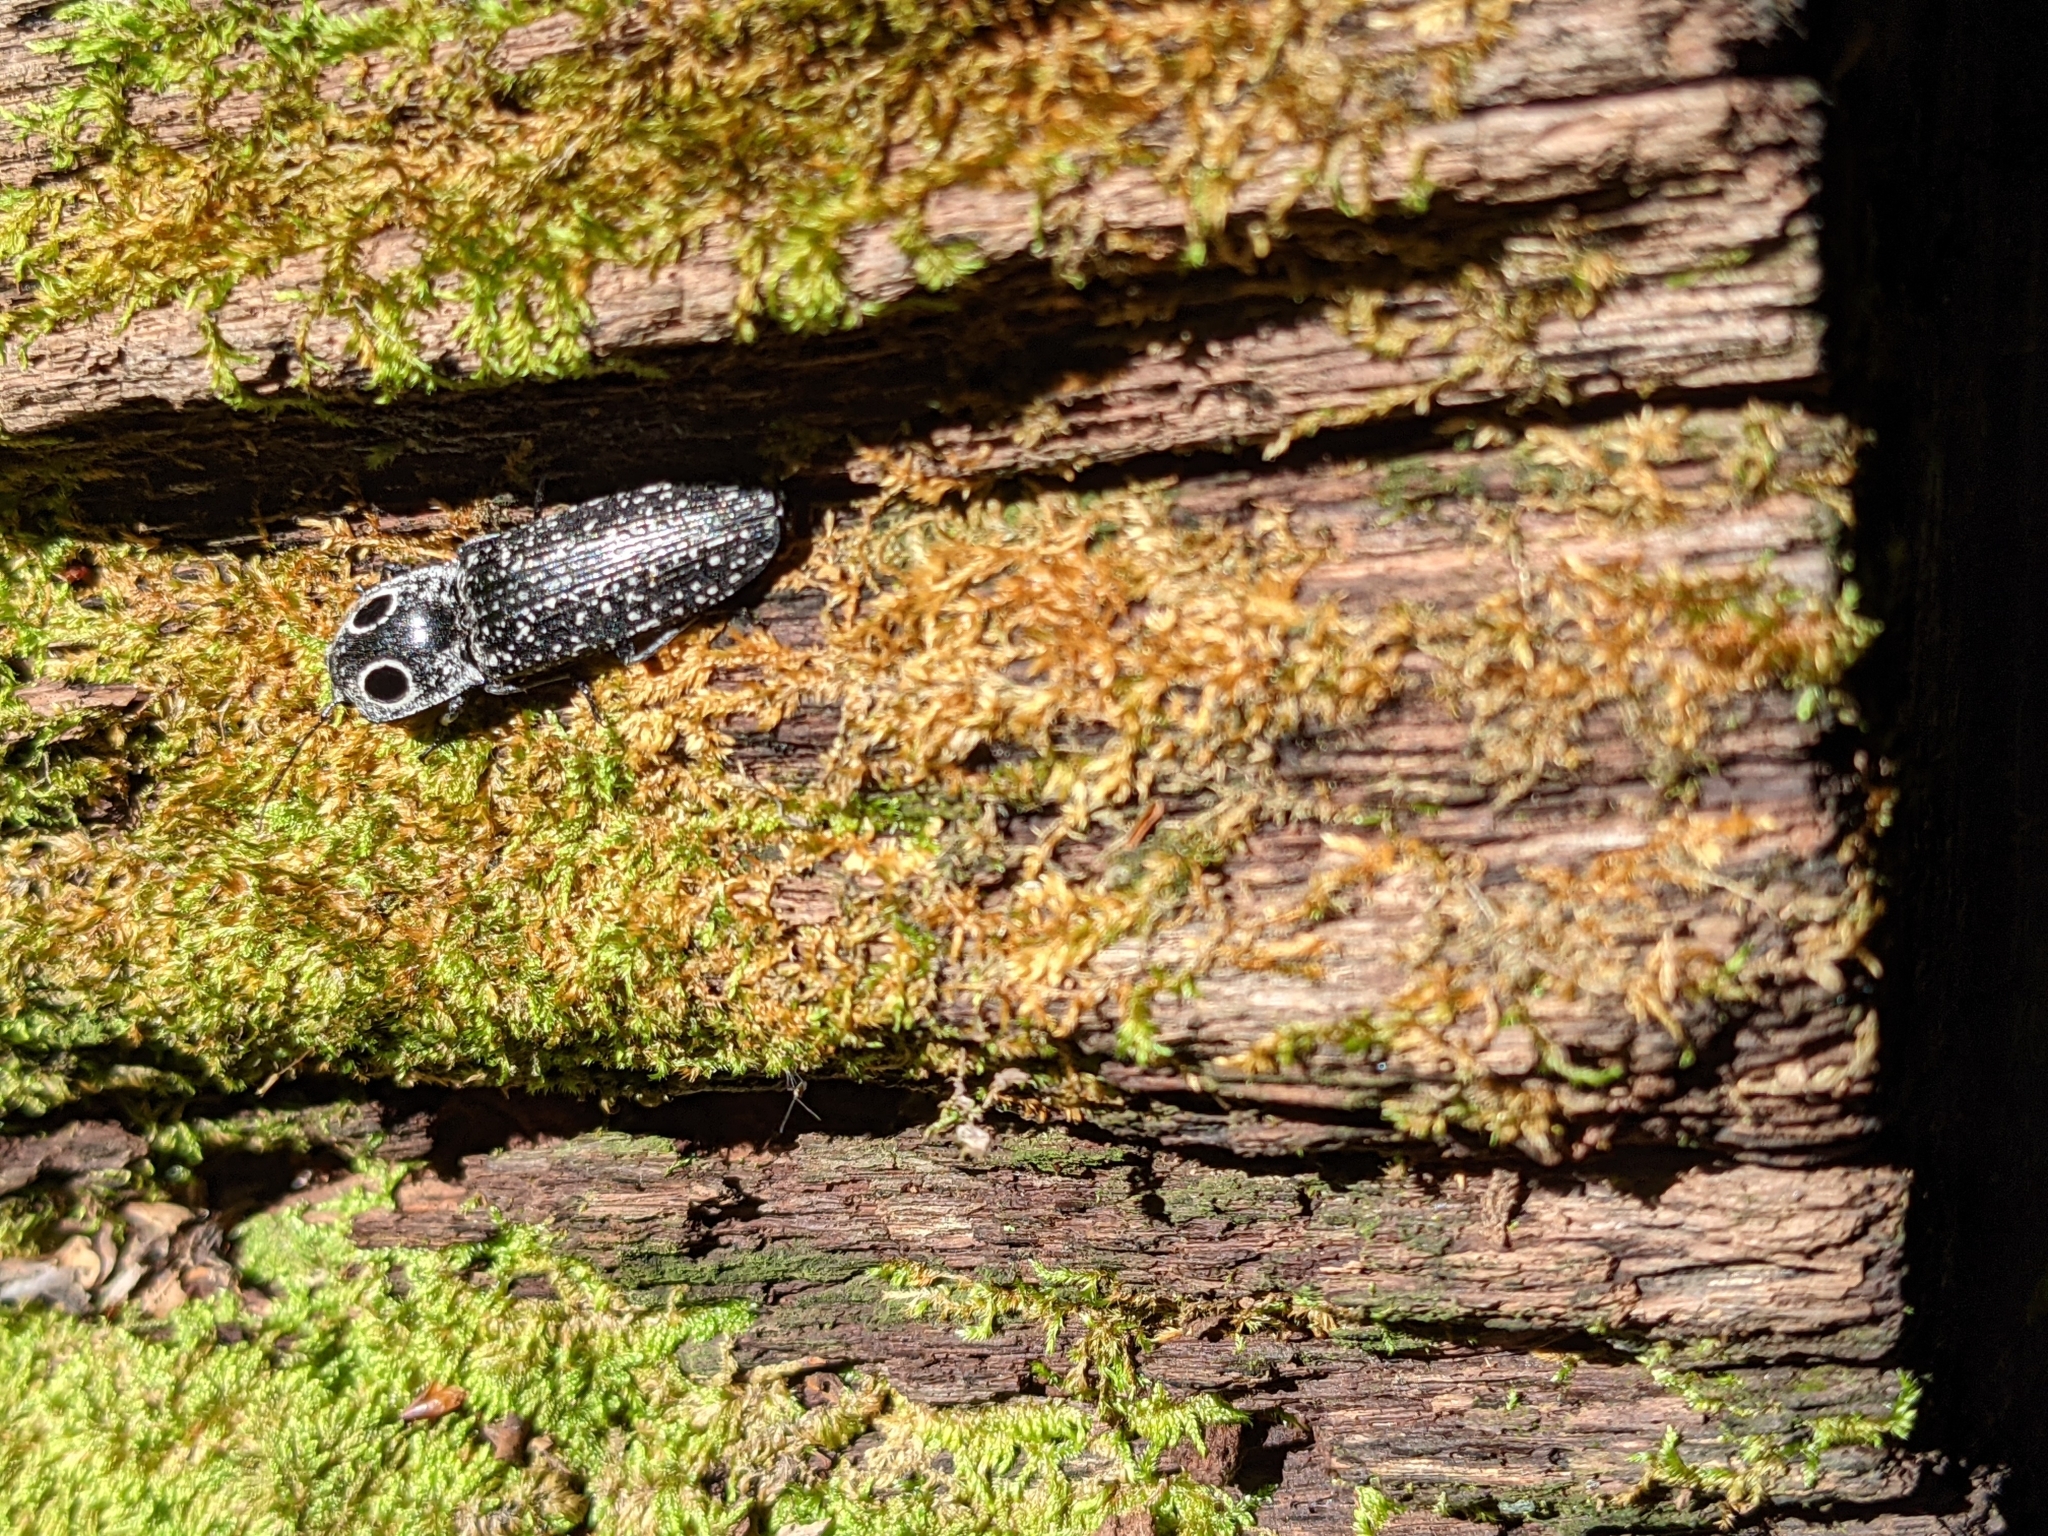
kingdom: Animalia
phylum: Arthropoda
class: Insecta
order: Coleoptera
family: Elateridae
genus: Alaus
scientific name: Alaus oculatus
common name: Eastern eyed click beetle
